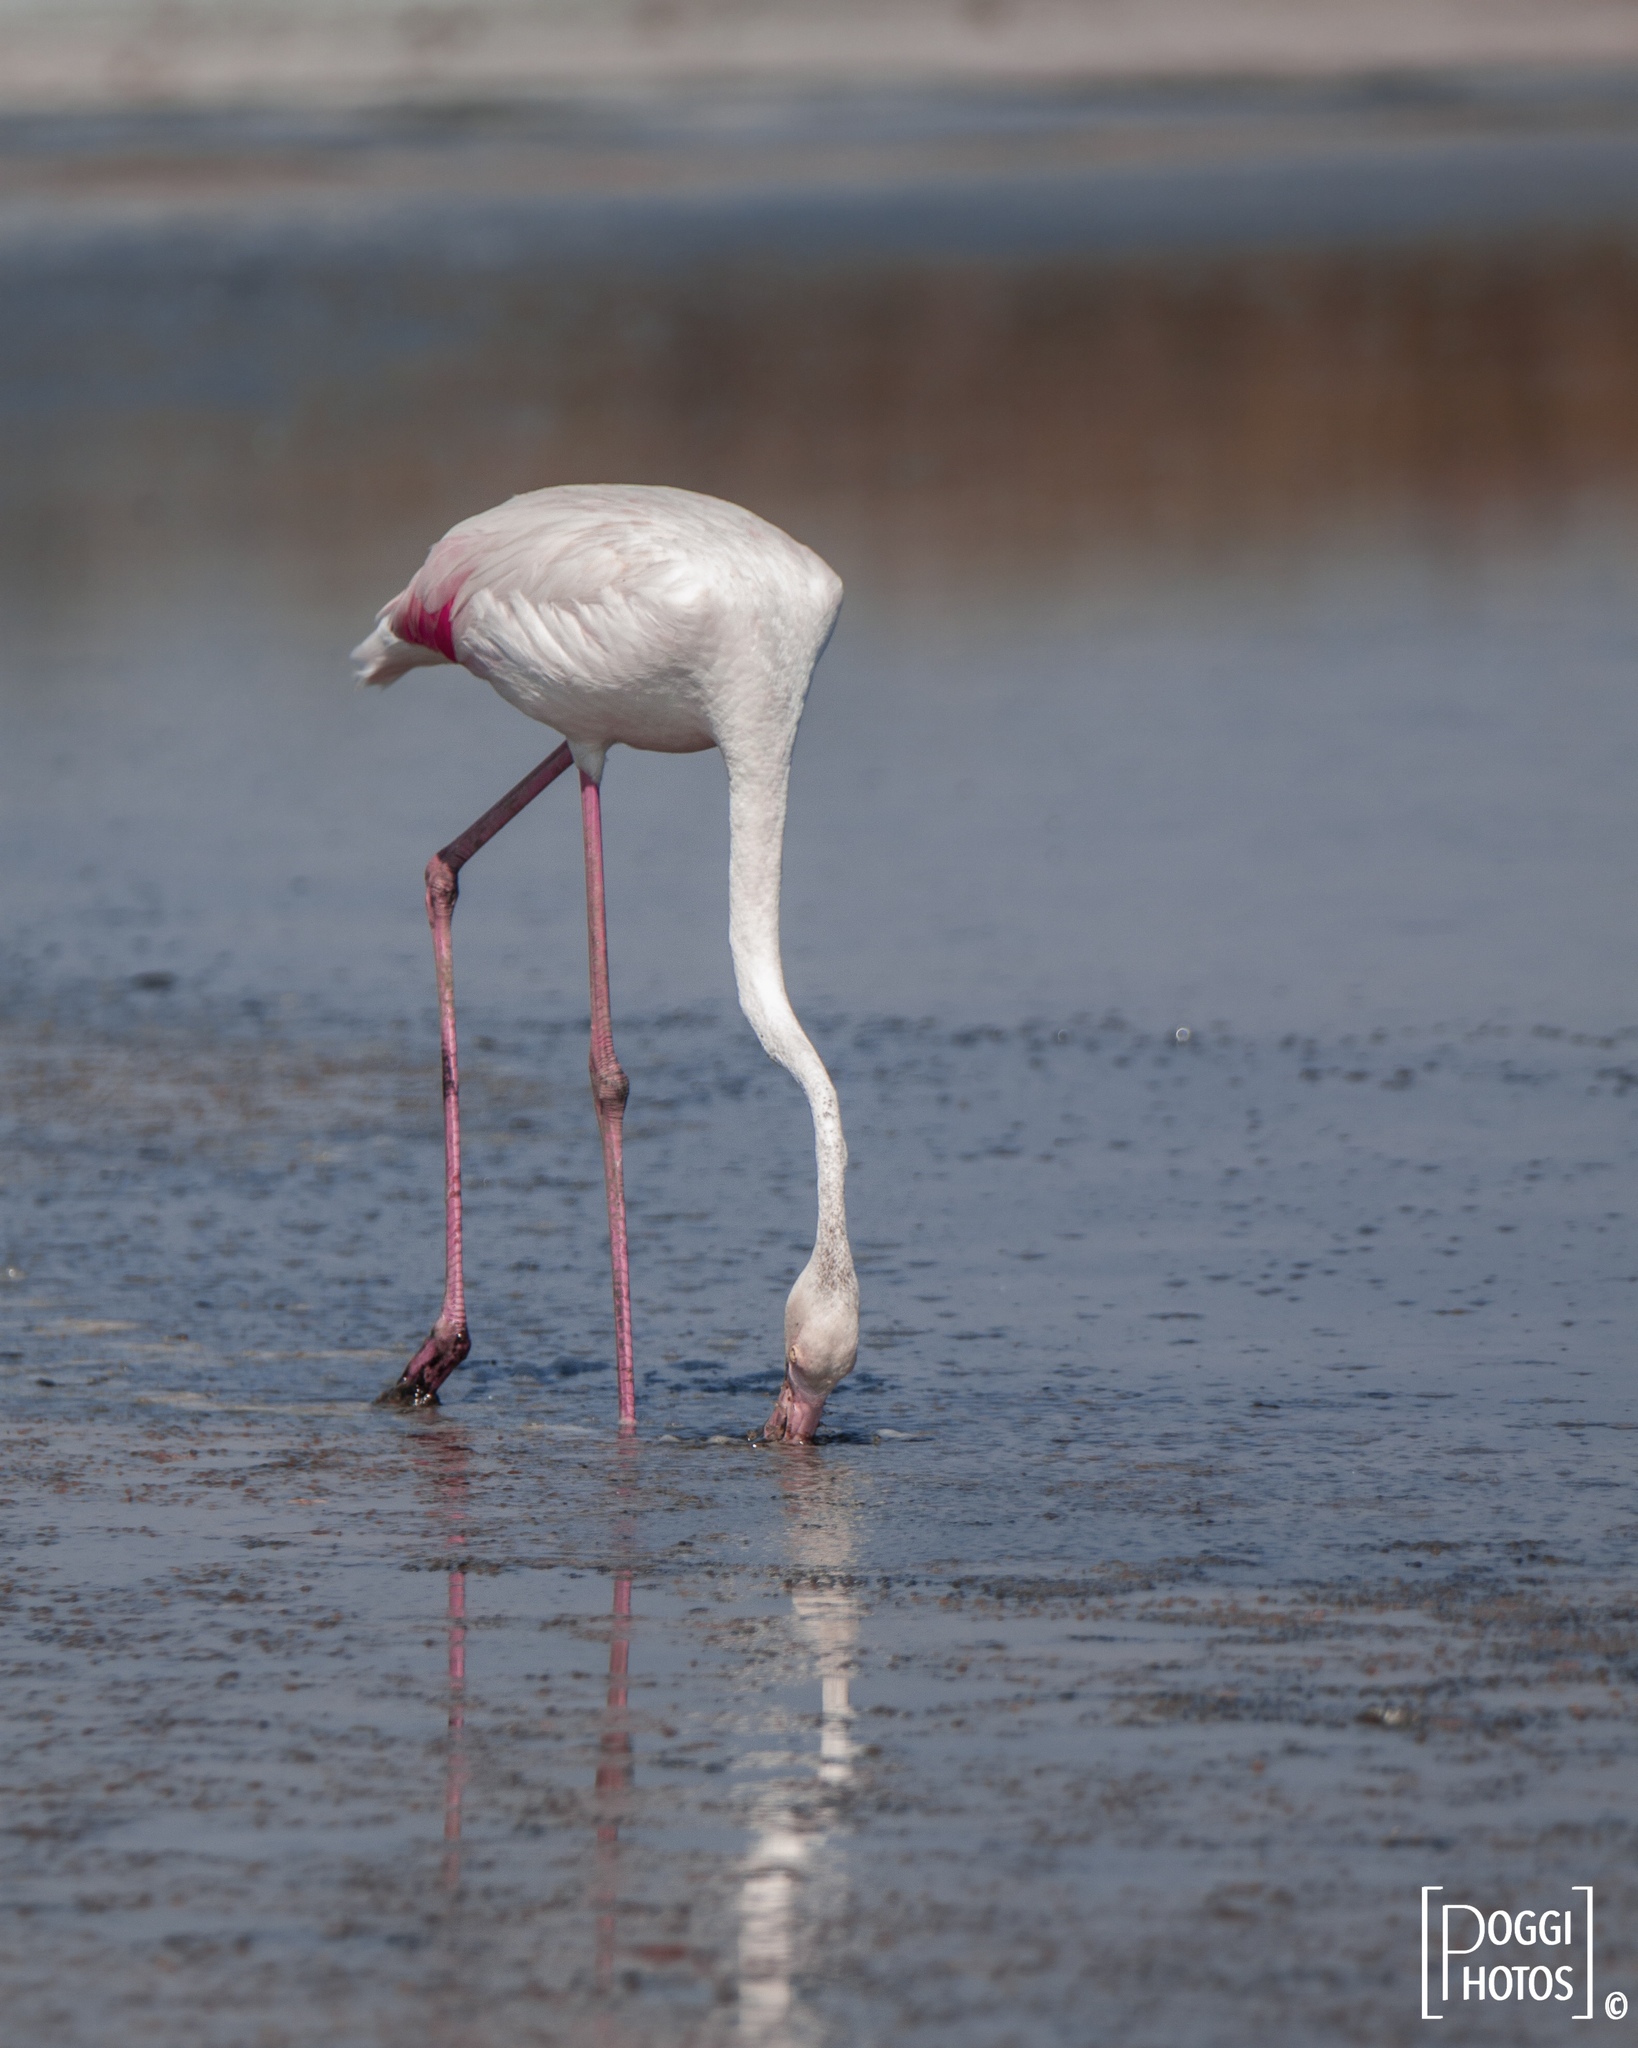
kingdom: Animalia
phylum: Chordata
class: Aves
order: Phoenicopteriformes
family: Phoenicopteridae
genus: Phoenicopterus
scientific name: Phoenicopterus roseus
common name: Greater flamingo
